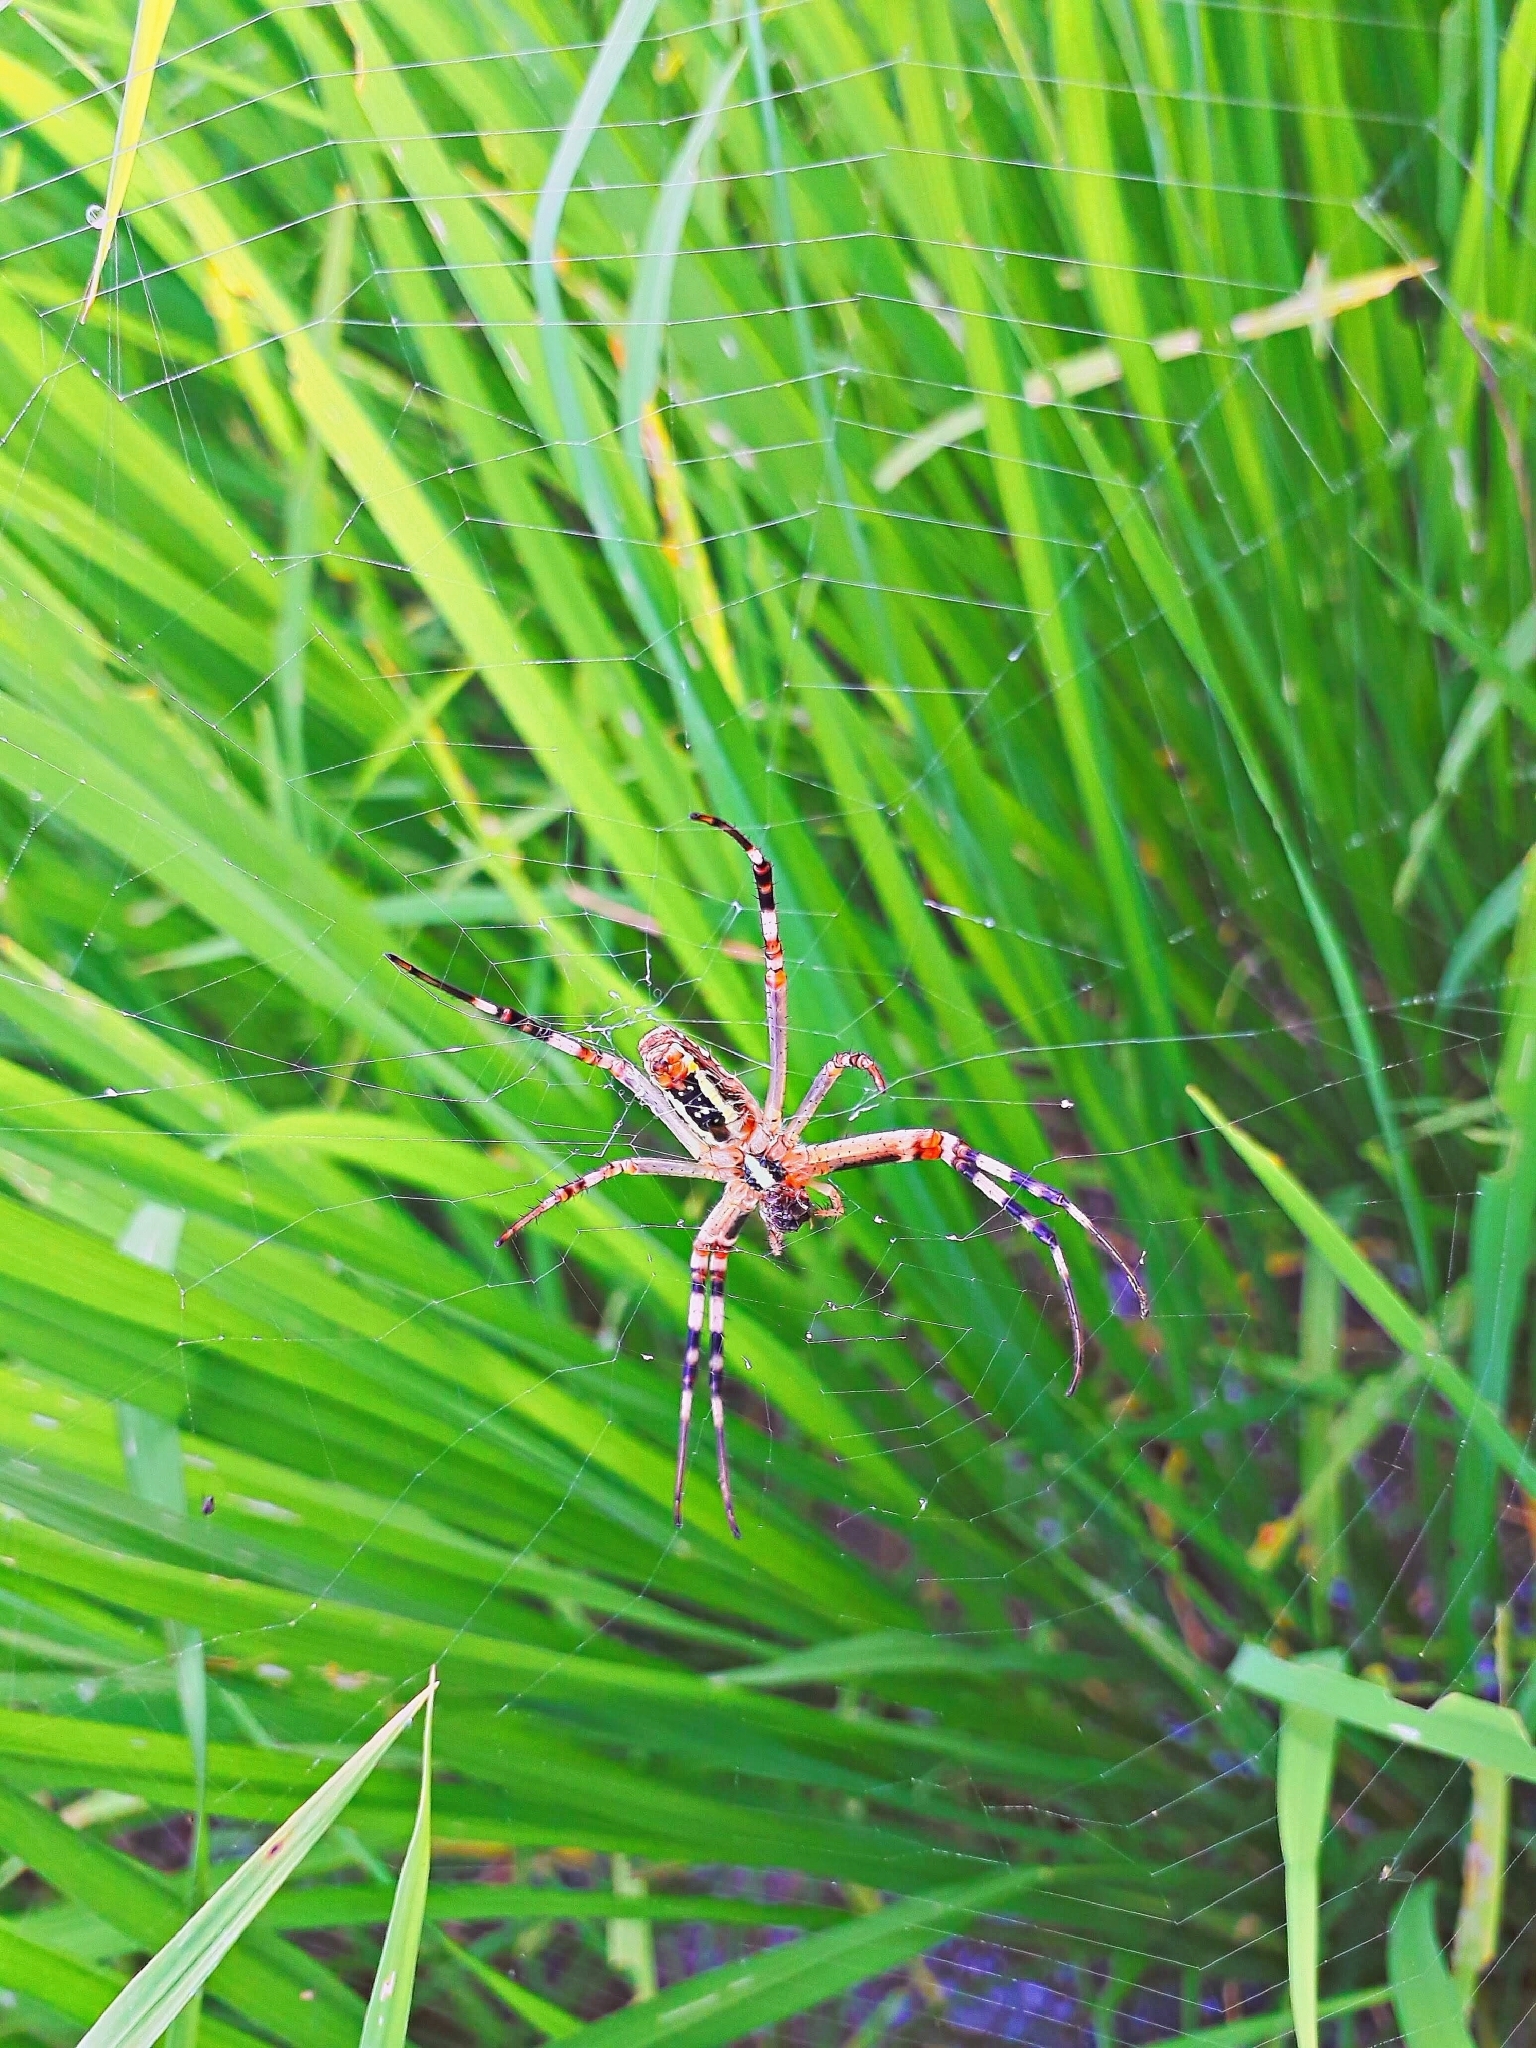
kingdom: Animalia
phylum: Arthropoda
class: Arachnida
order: Araneae
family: Araneidae
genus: Argiope
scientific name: Argiope bruennichi
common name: Wasp spider
